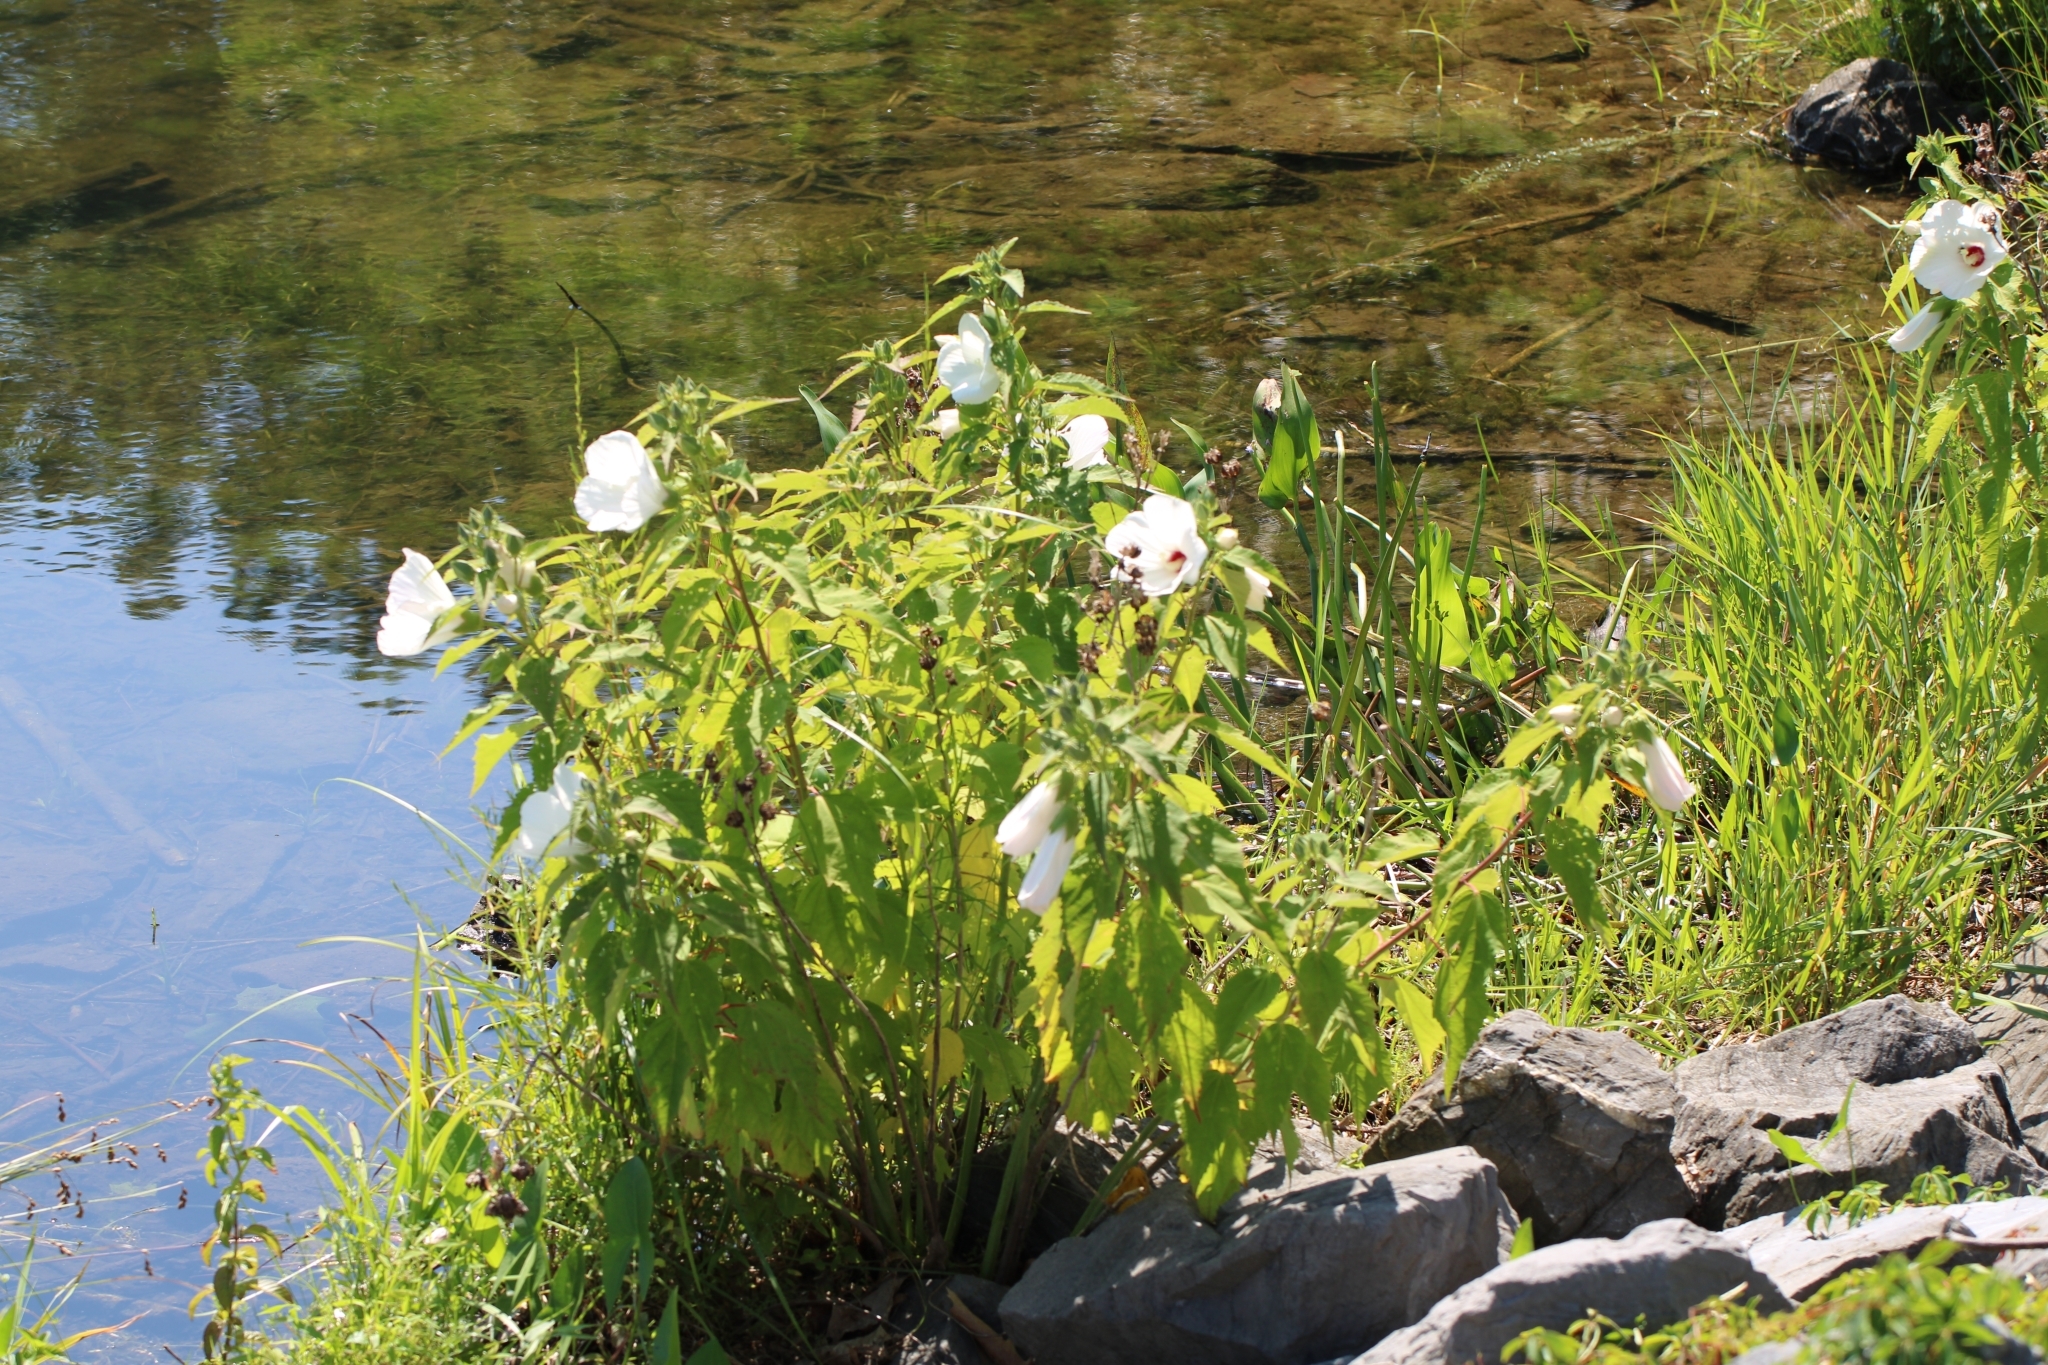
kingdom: Plantae
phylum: Tracheophyta
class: Magnoliopsida
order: Malvales
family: Malvaceae
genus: Hibiscus
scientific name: Hibiscus moscheutos
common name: Common rose-mallow
